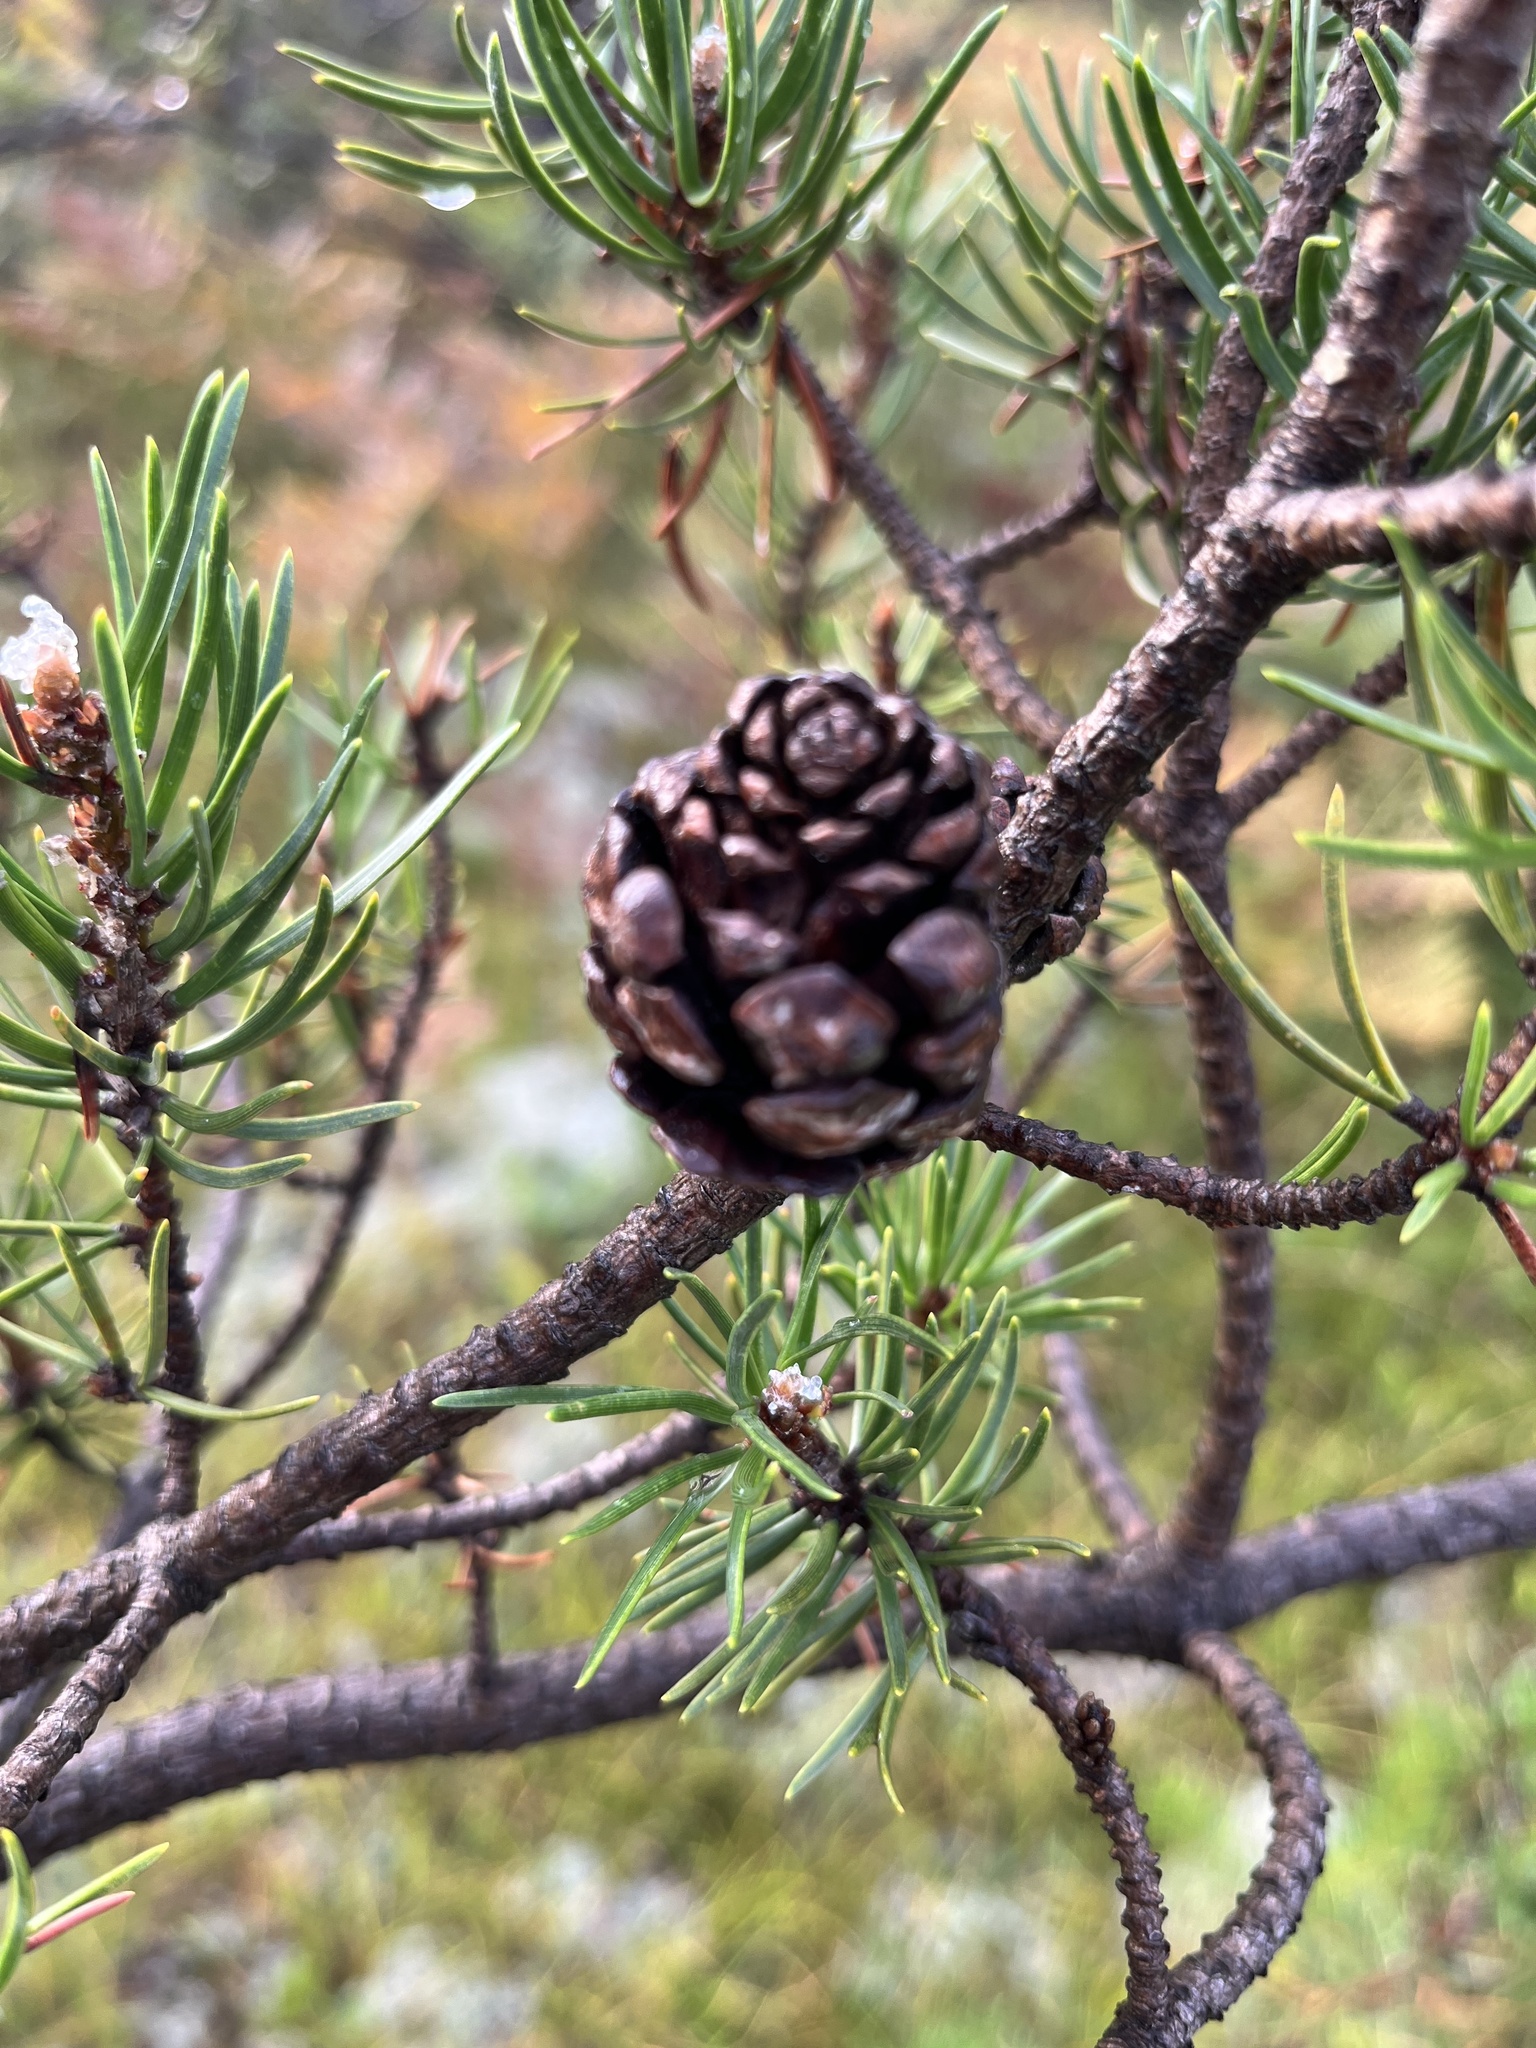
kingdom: Plantae
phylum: Tracheophyta
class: Pinopsida
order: Pinales
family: Pinaceae
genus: Pinus
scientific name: Pinus banksiana
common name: Jack pine
